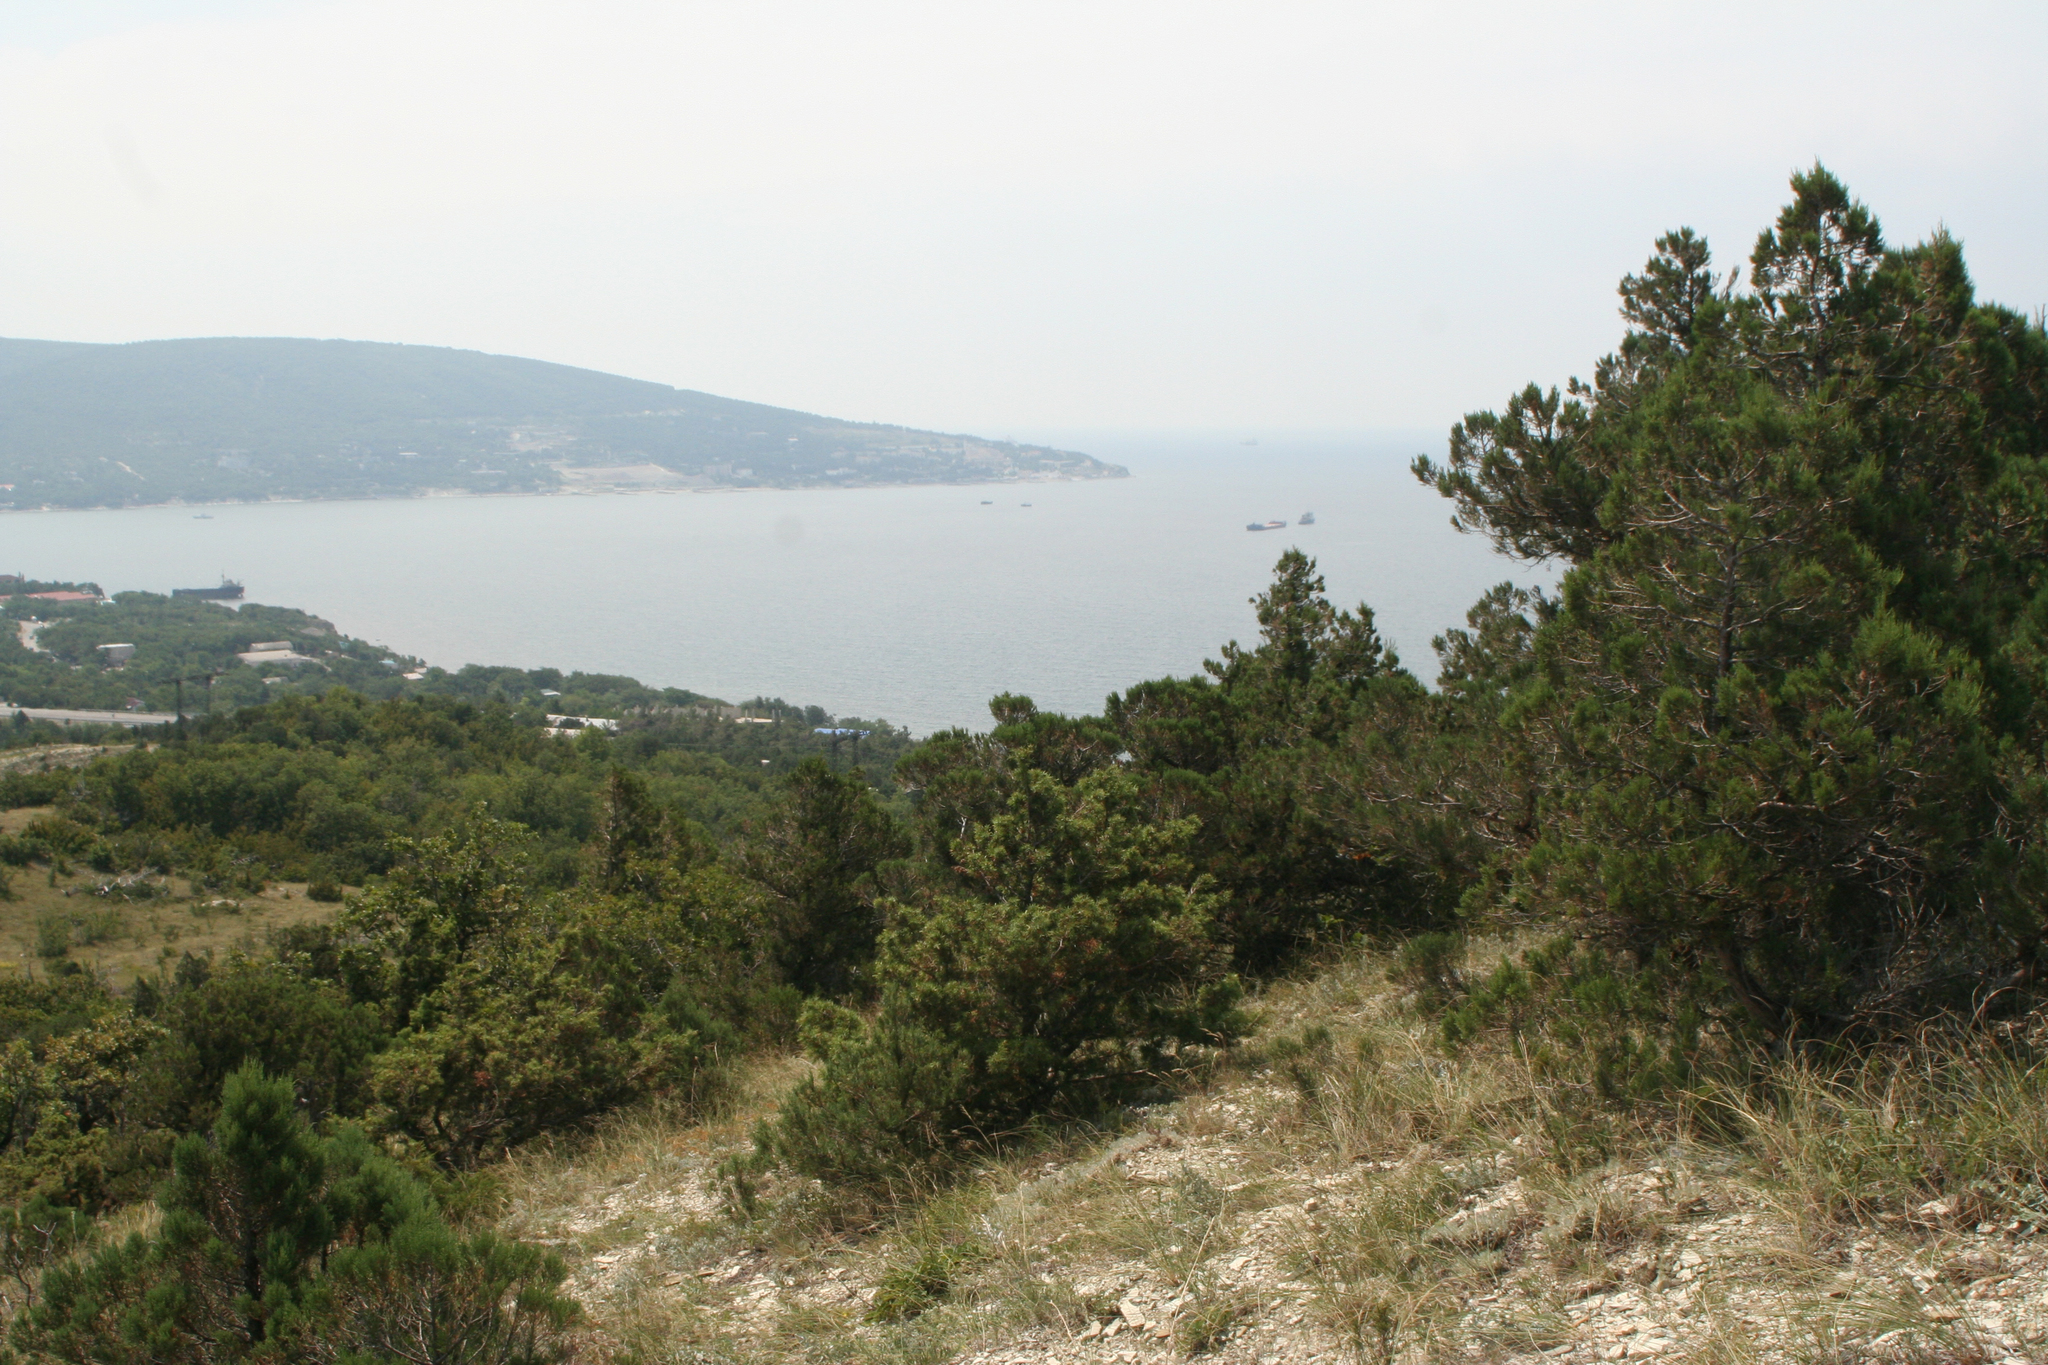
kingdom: Plantae
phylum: Tracheophyta
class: Pinopsida
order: Pinales
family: Cupressaceae
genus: Juniperus
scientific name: Juniperus excelsa
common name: Crimean juniper
